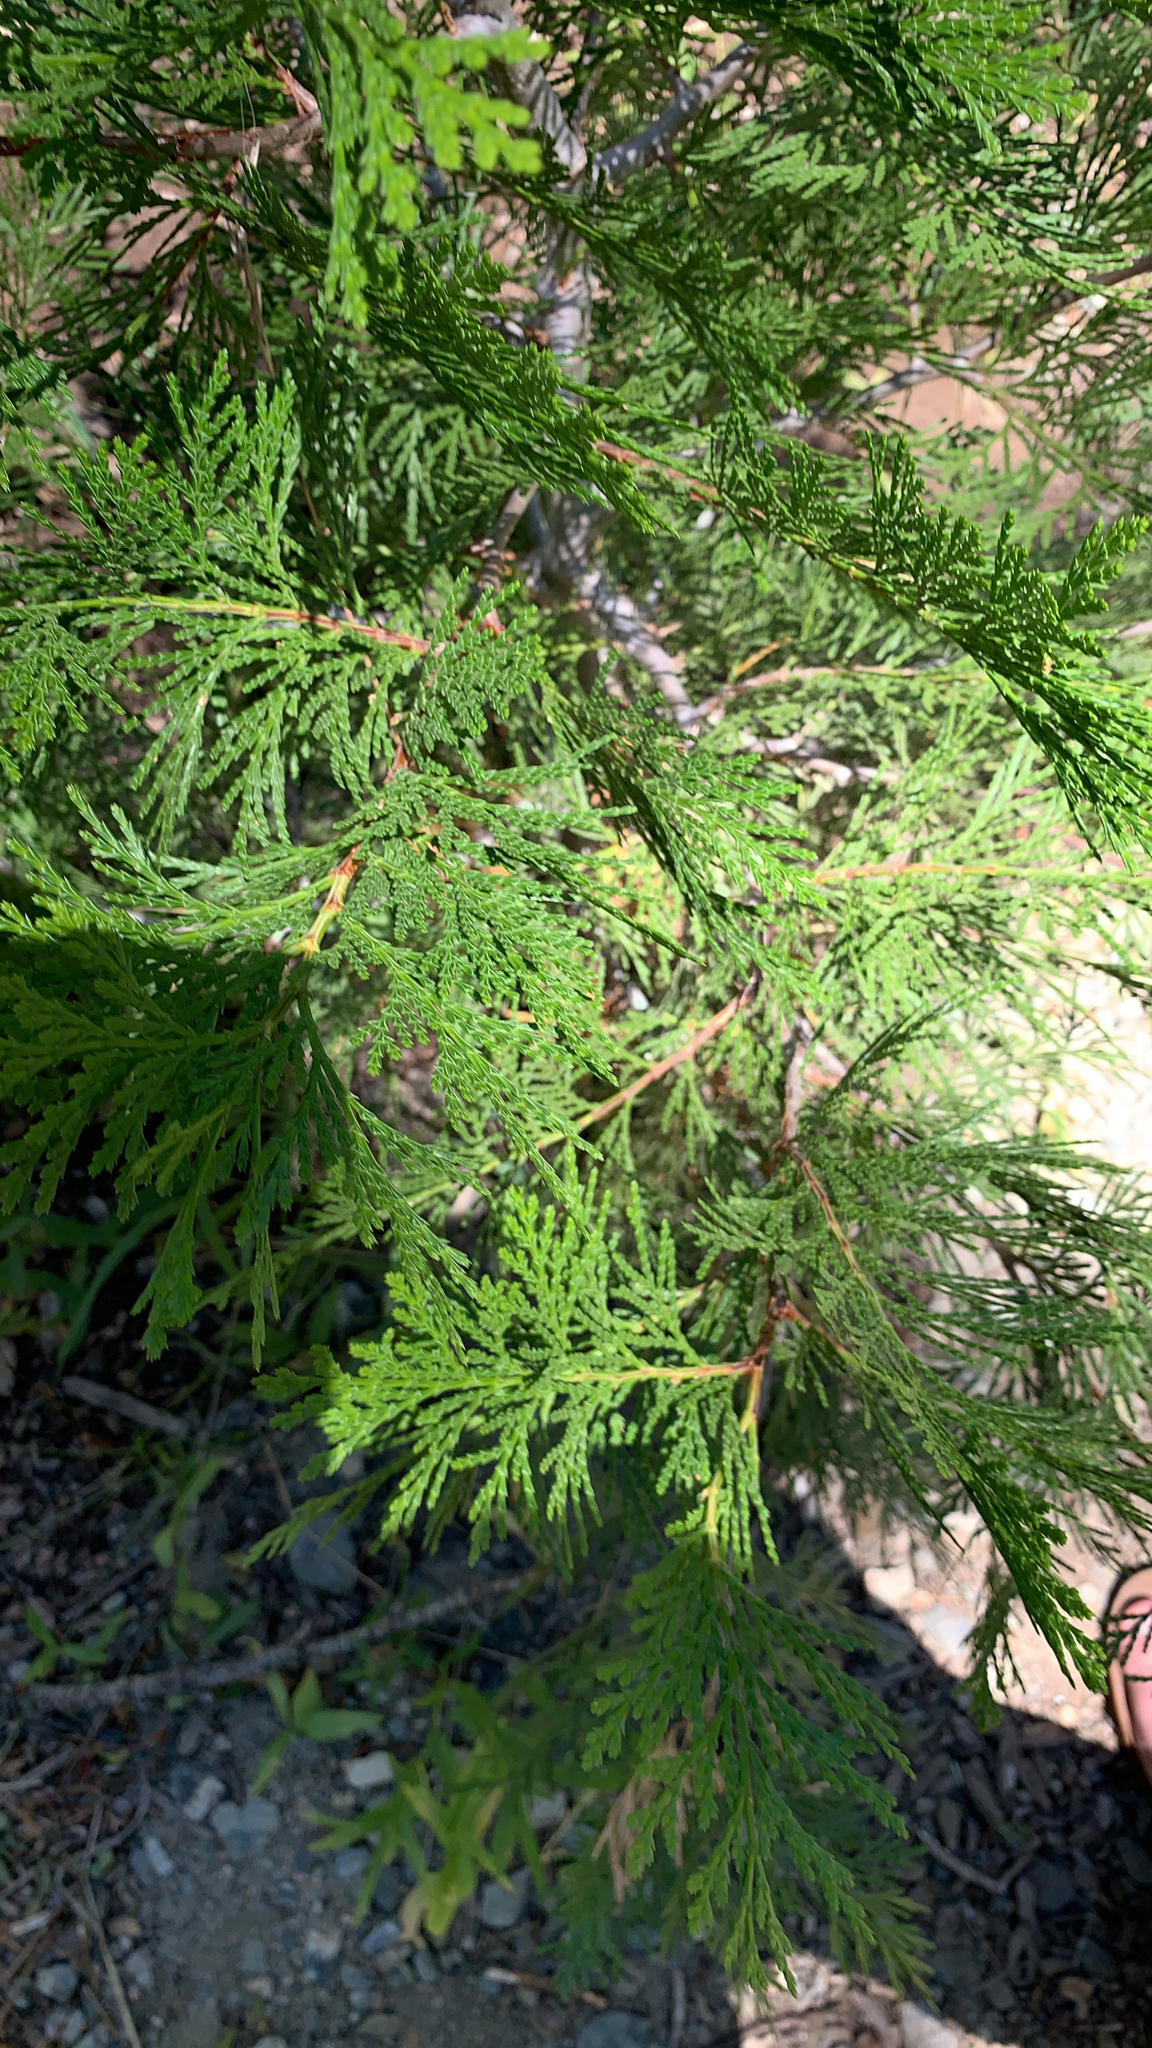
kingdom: Plantae
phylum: Tracheophyta
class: Pinopsida
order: Pinales
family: Cupressaceae
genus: Calocedrus
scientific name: Calocedrus decurrens
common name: Californian incense-cedar
